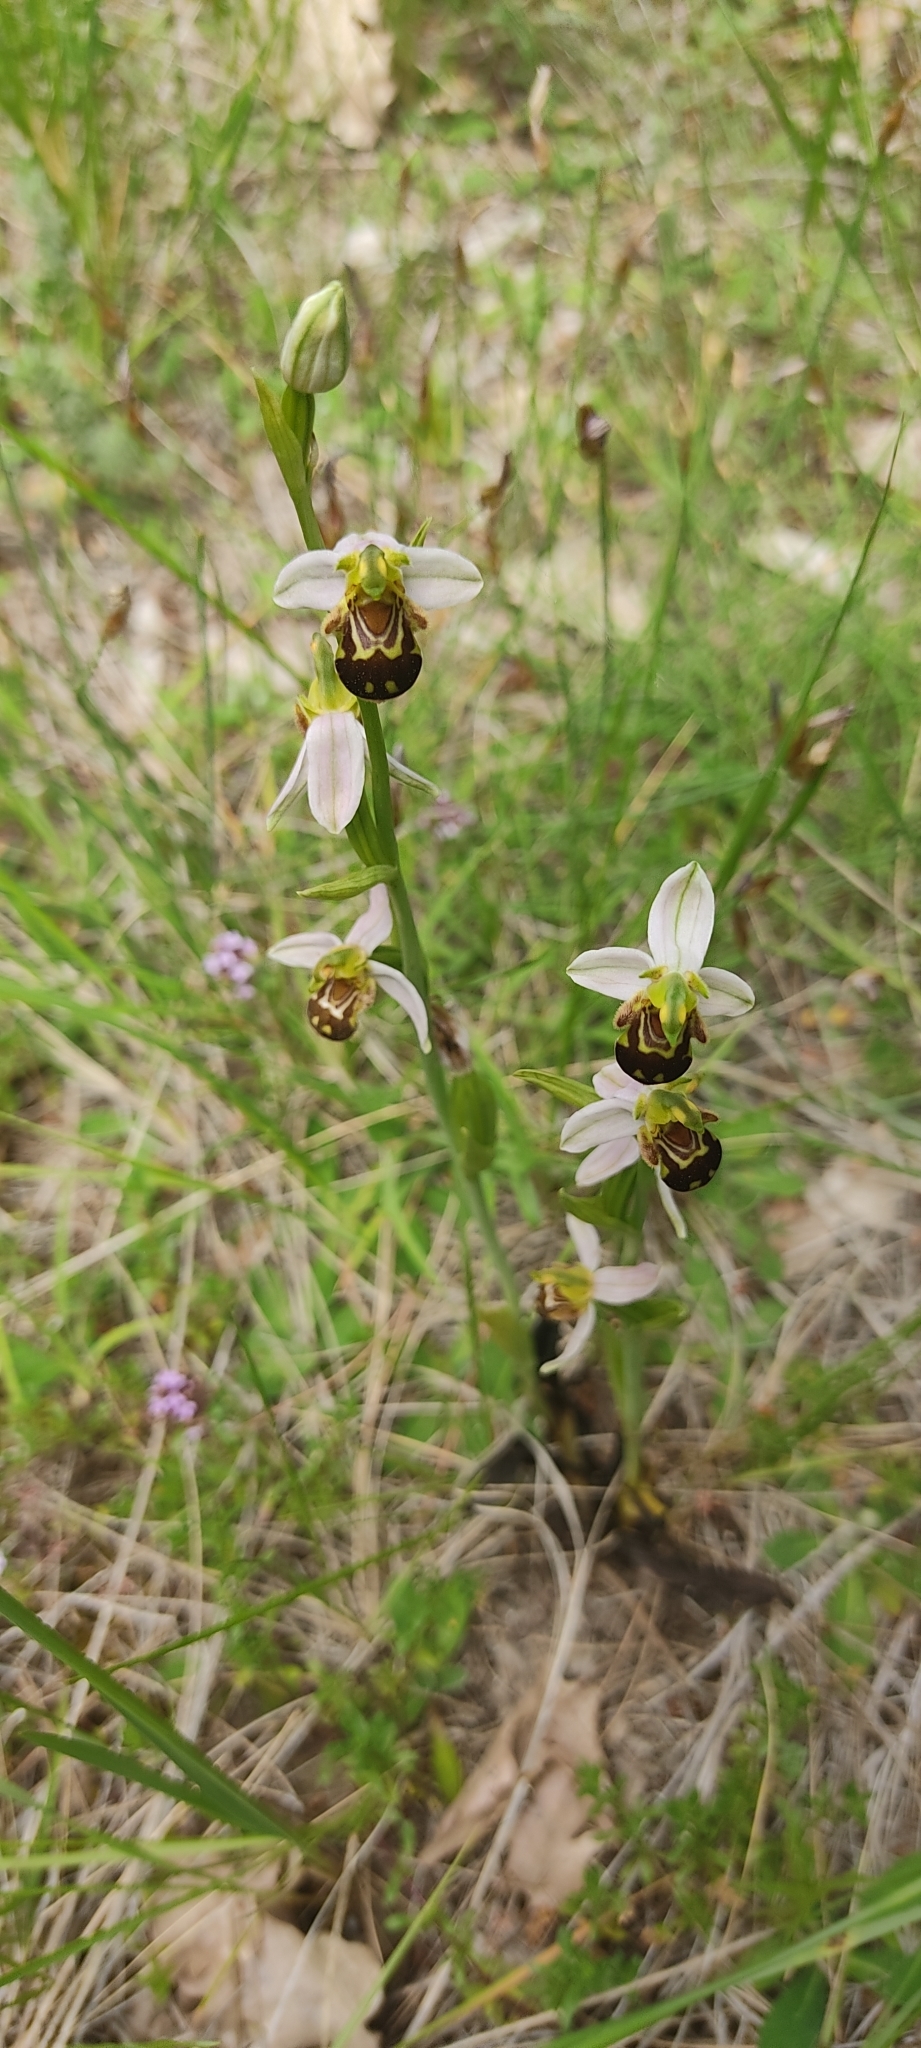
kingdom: Plantae
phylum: Tracheophyta
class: Liliopsida
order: Asparagales
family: Orchidaceae
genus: Ophrys
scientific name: Ophrys apifera
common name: Bee orchid
